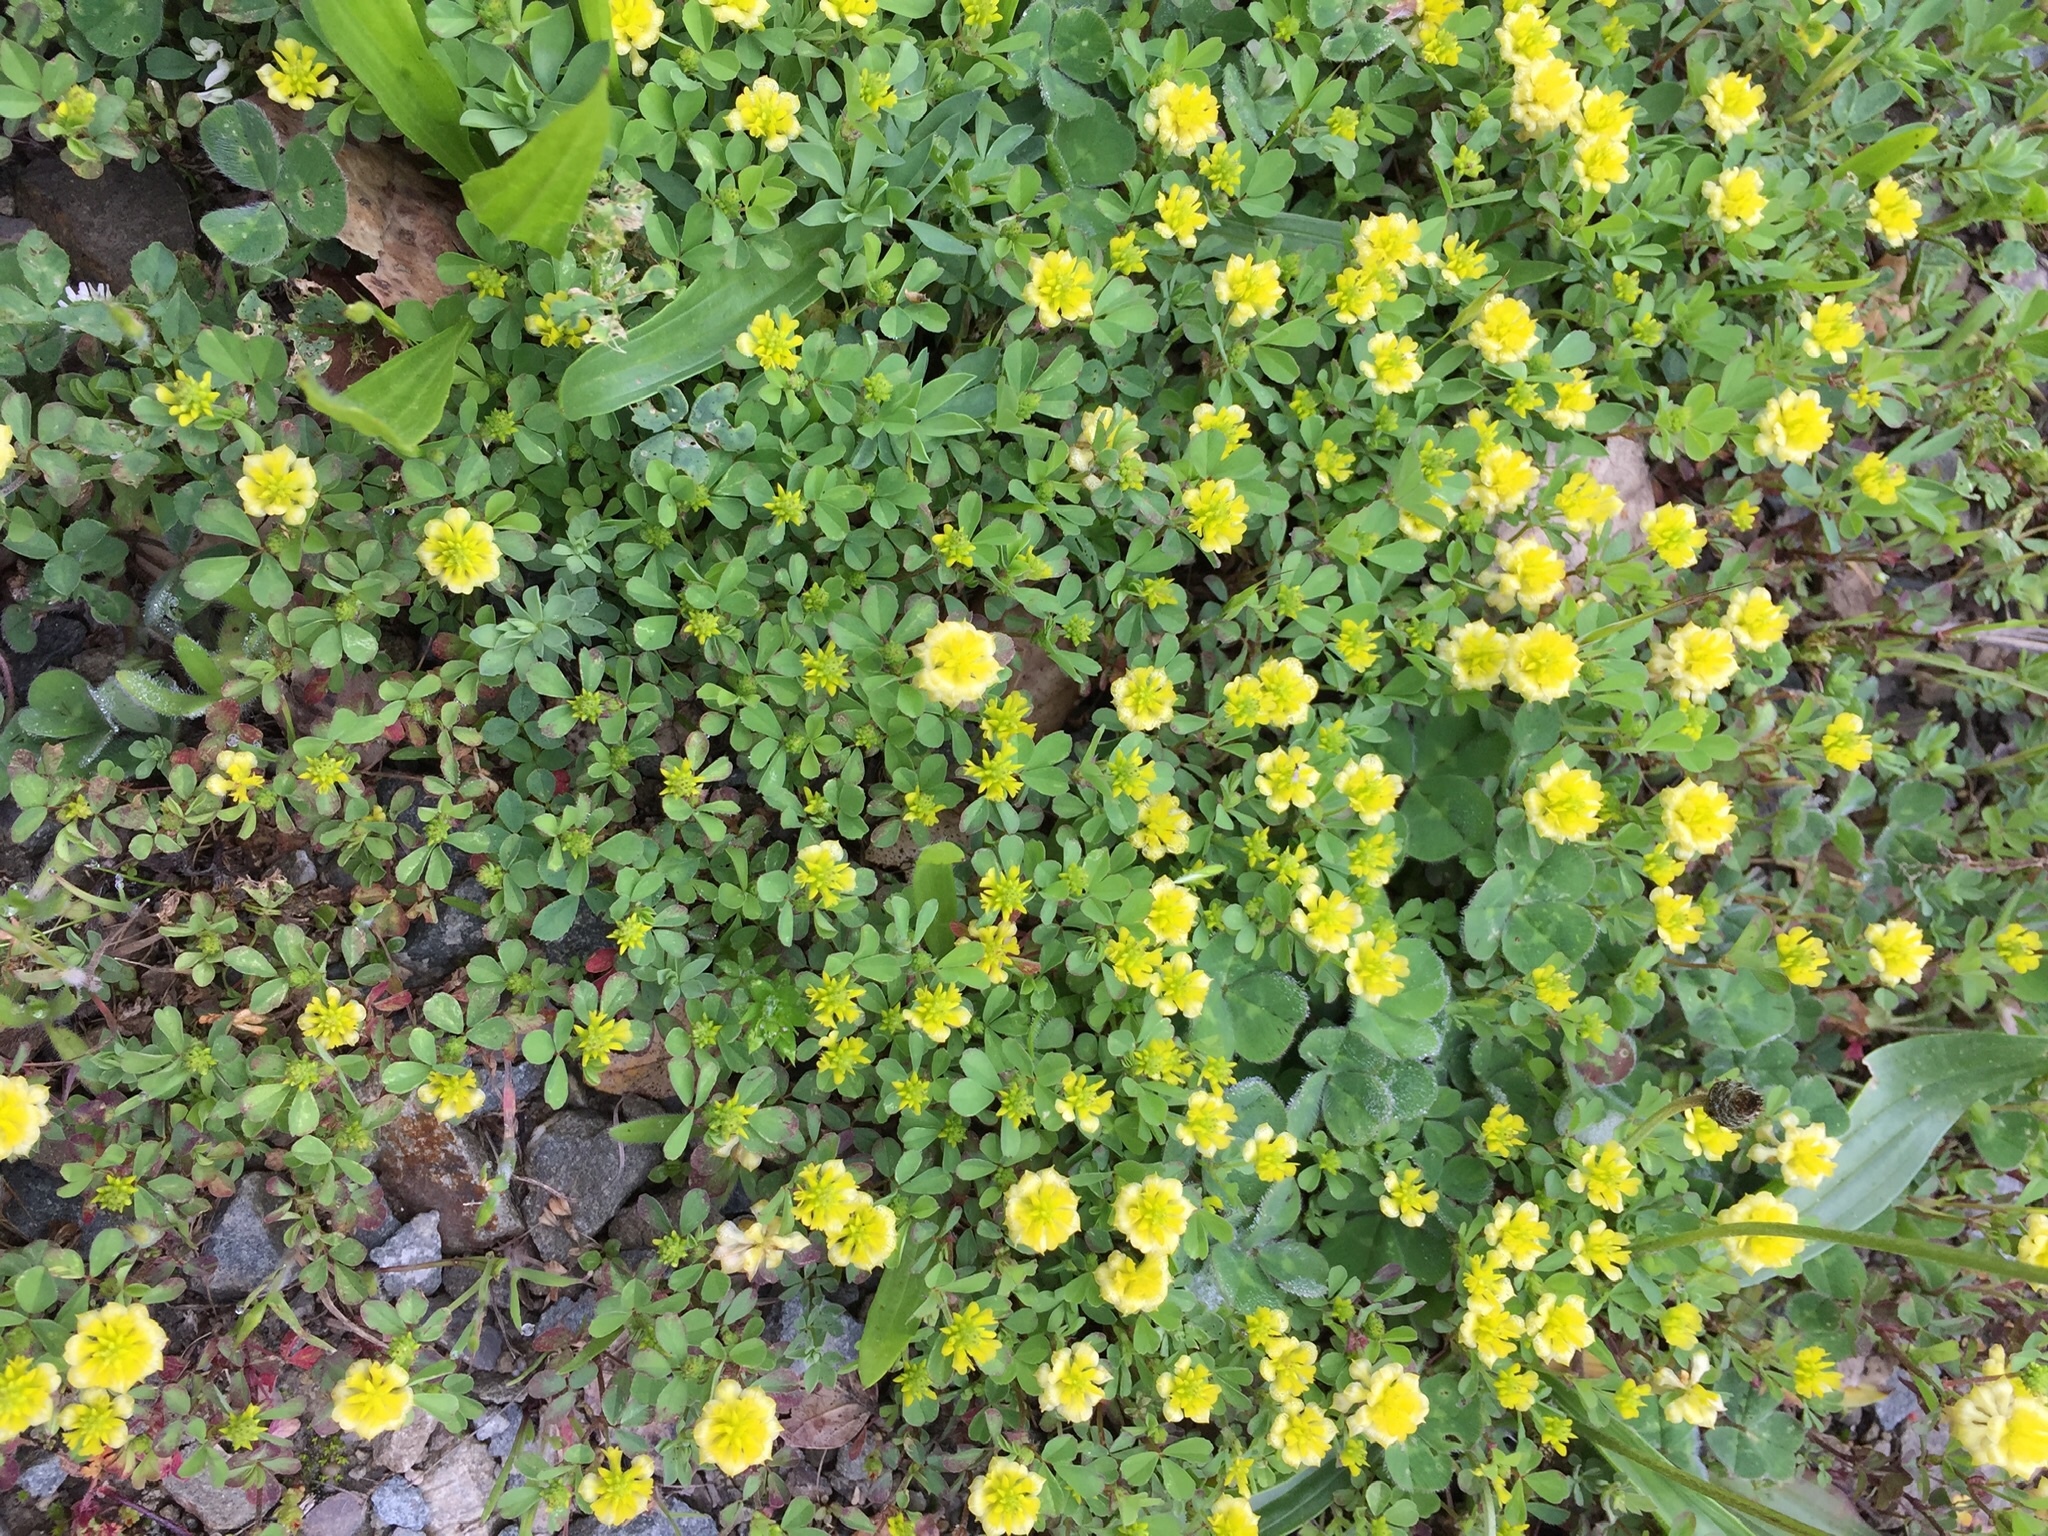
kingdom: Plantae
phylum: Tracheophyta
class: Magnoliopsida
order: Fabales
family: Fabaceae
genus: Trifolium
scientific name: Trifolium campestre
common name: Field clover
